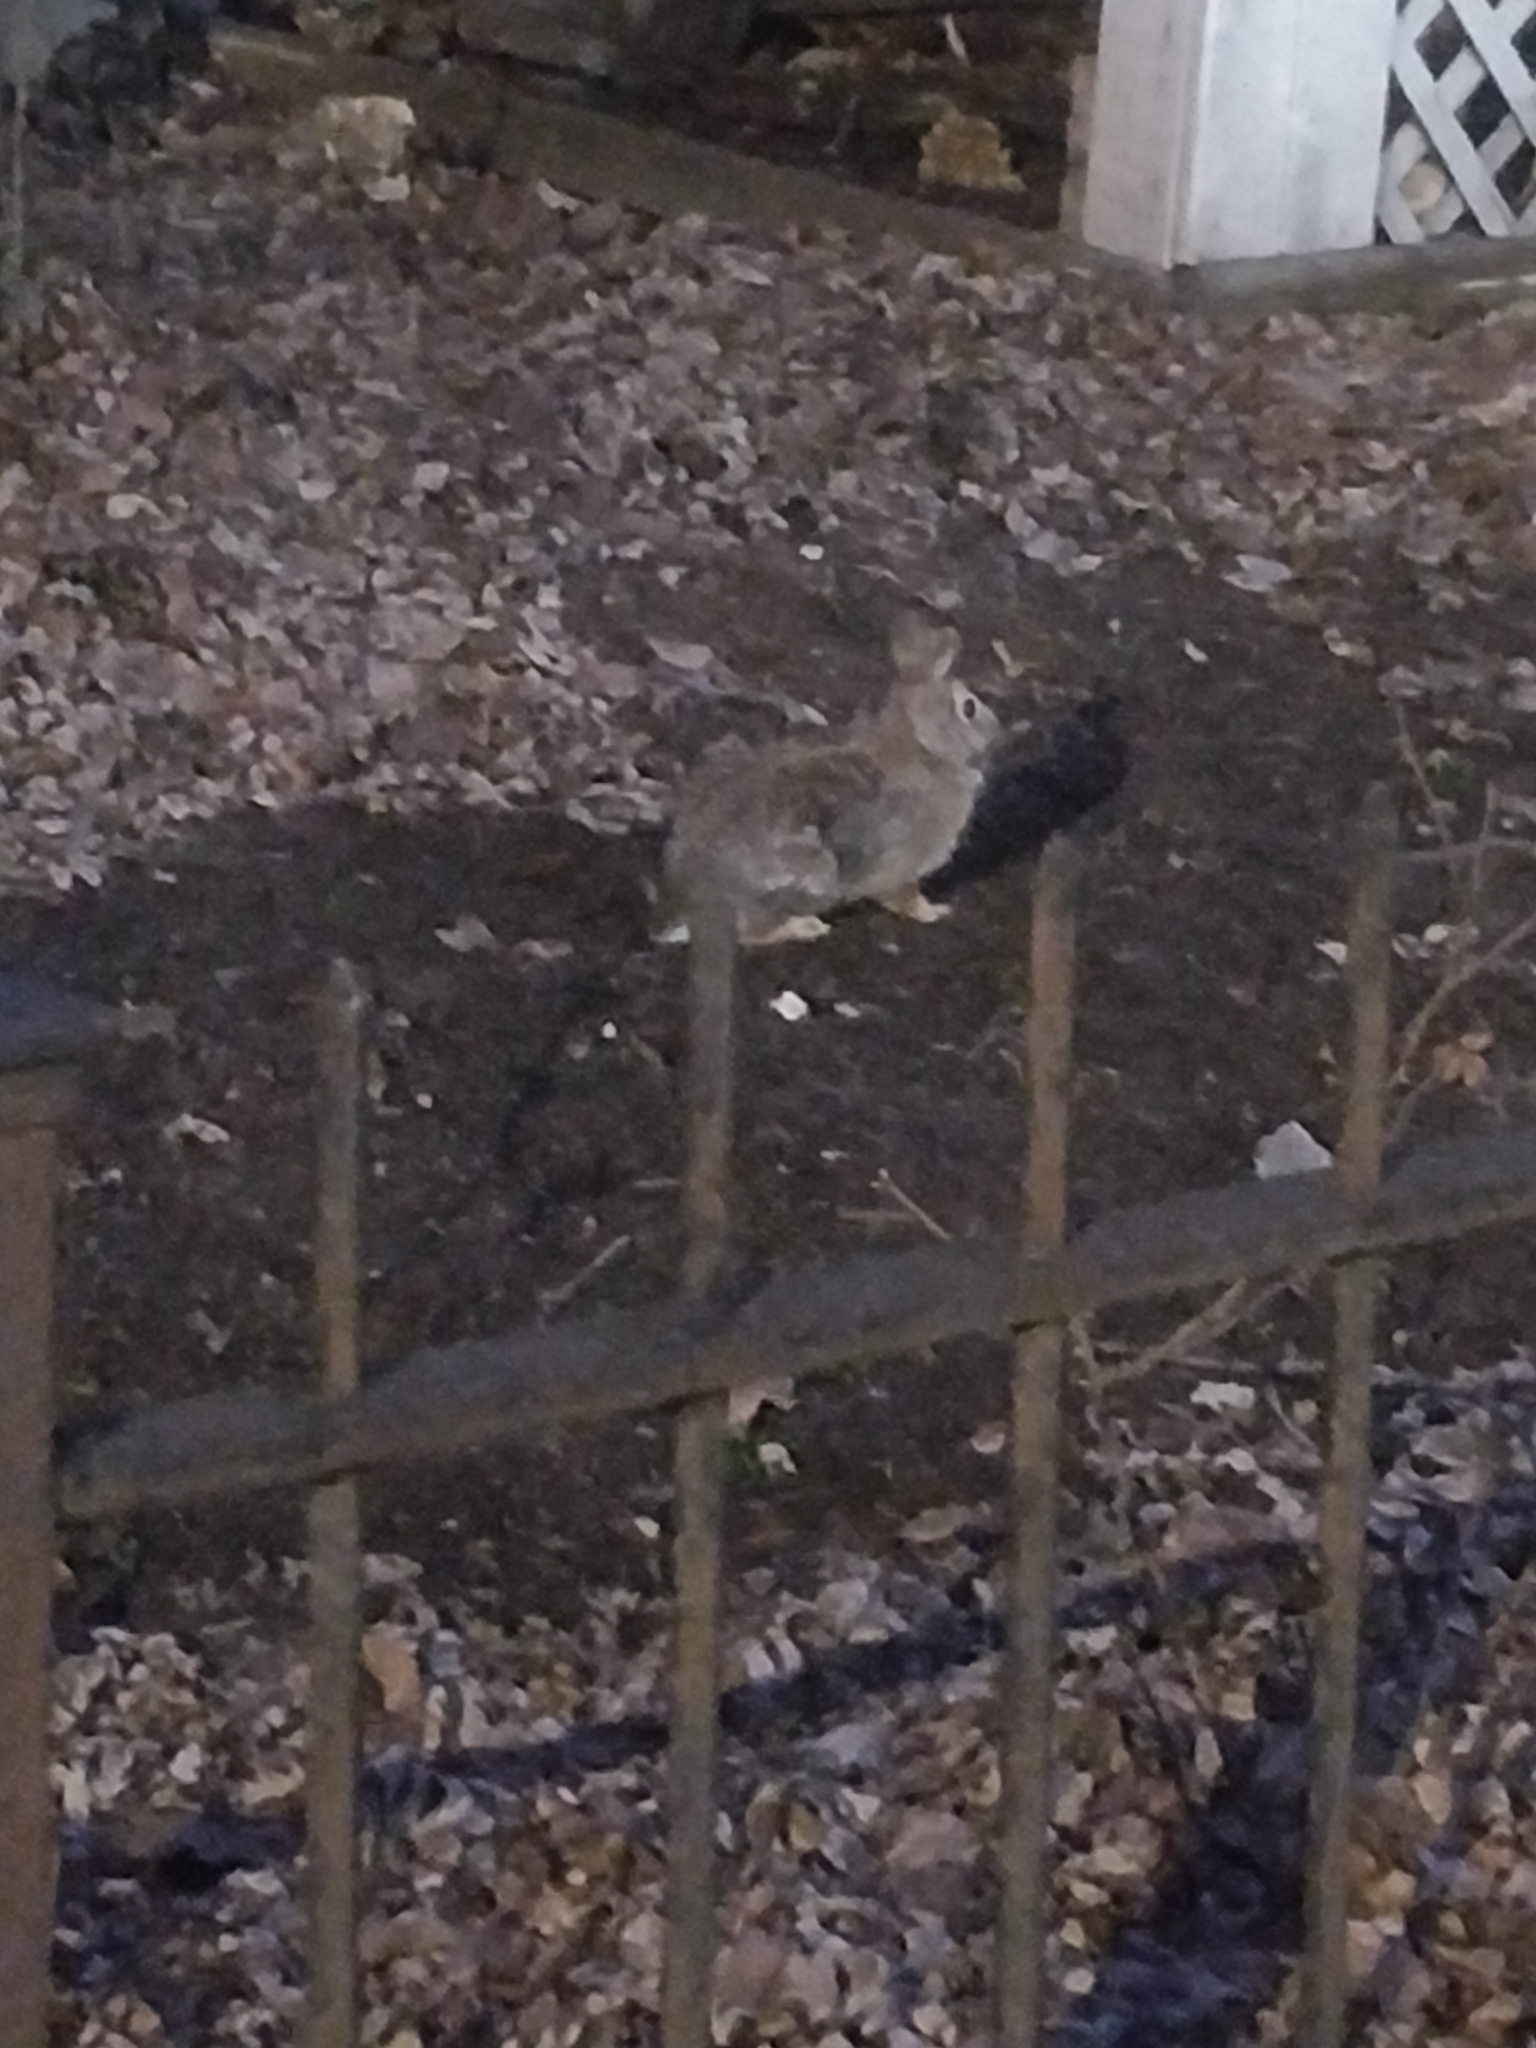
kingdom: Animalia
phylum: Chordata
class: Mammalia
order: Lagomorpha
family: Leporidae
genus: Sylvilagus
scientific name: Sylvilagus floridanus
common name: Eastern cottontail
